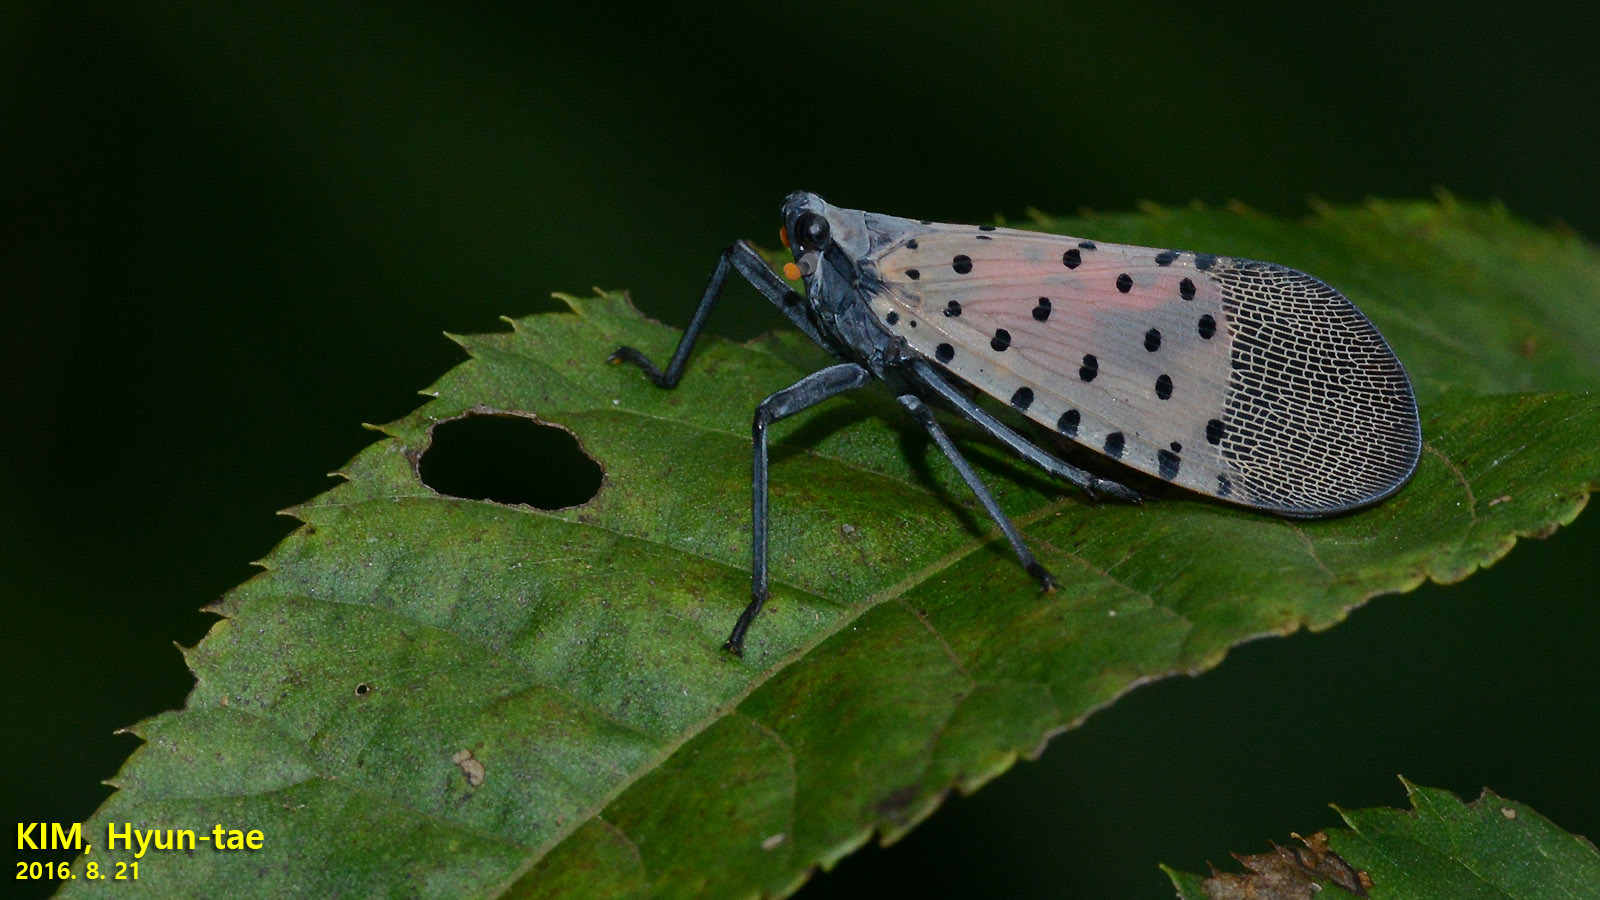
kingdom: Animalia
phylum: Arthropoda
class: Insecta
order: Hemiptera
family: Fulgoridae
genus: Lycorma
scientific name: Lycorma delicatula
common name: Spotted lanternfly
